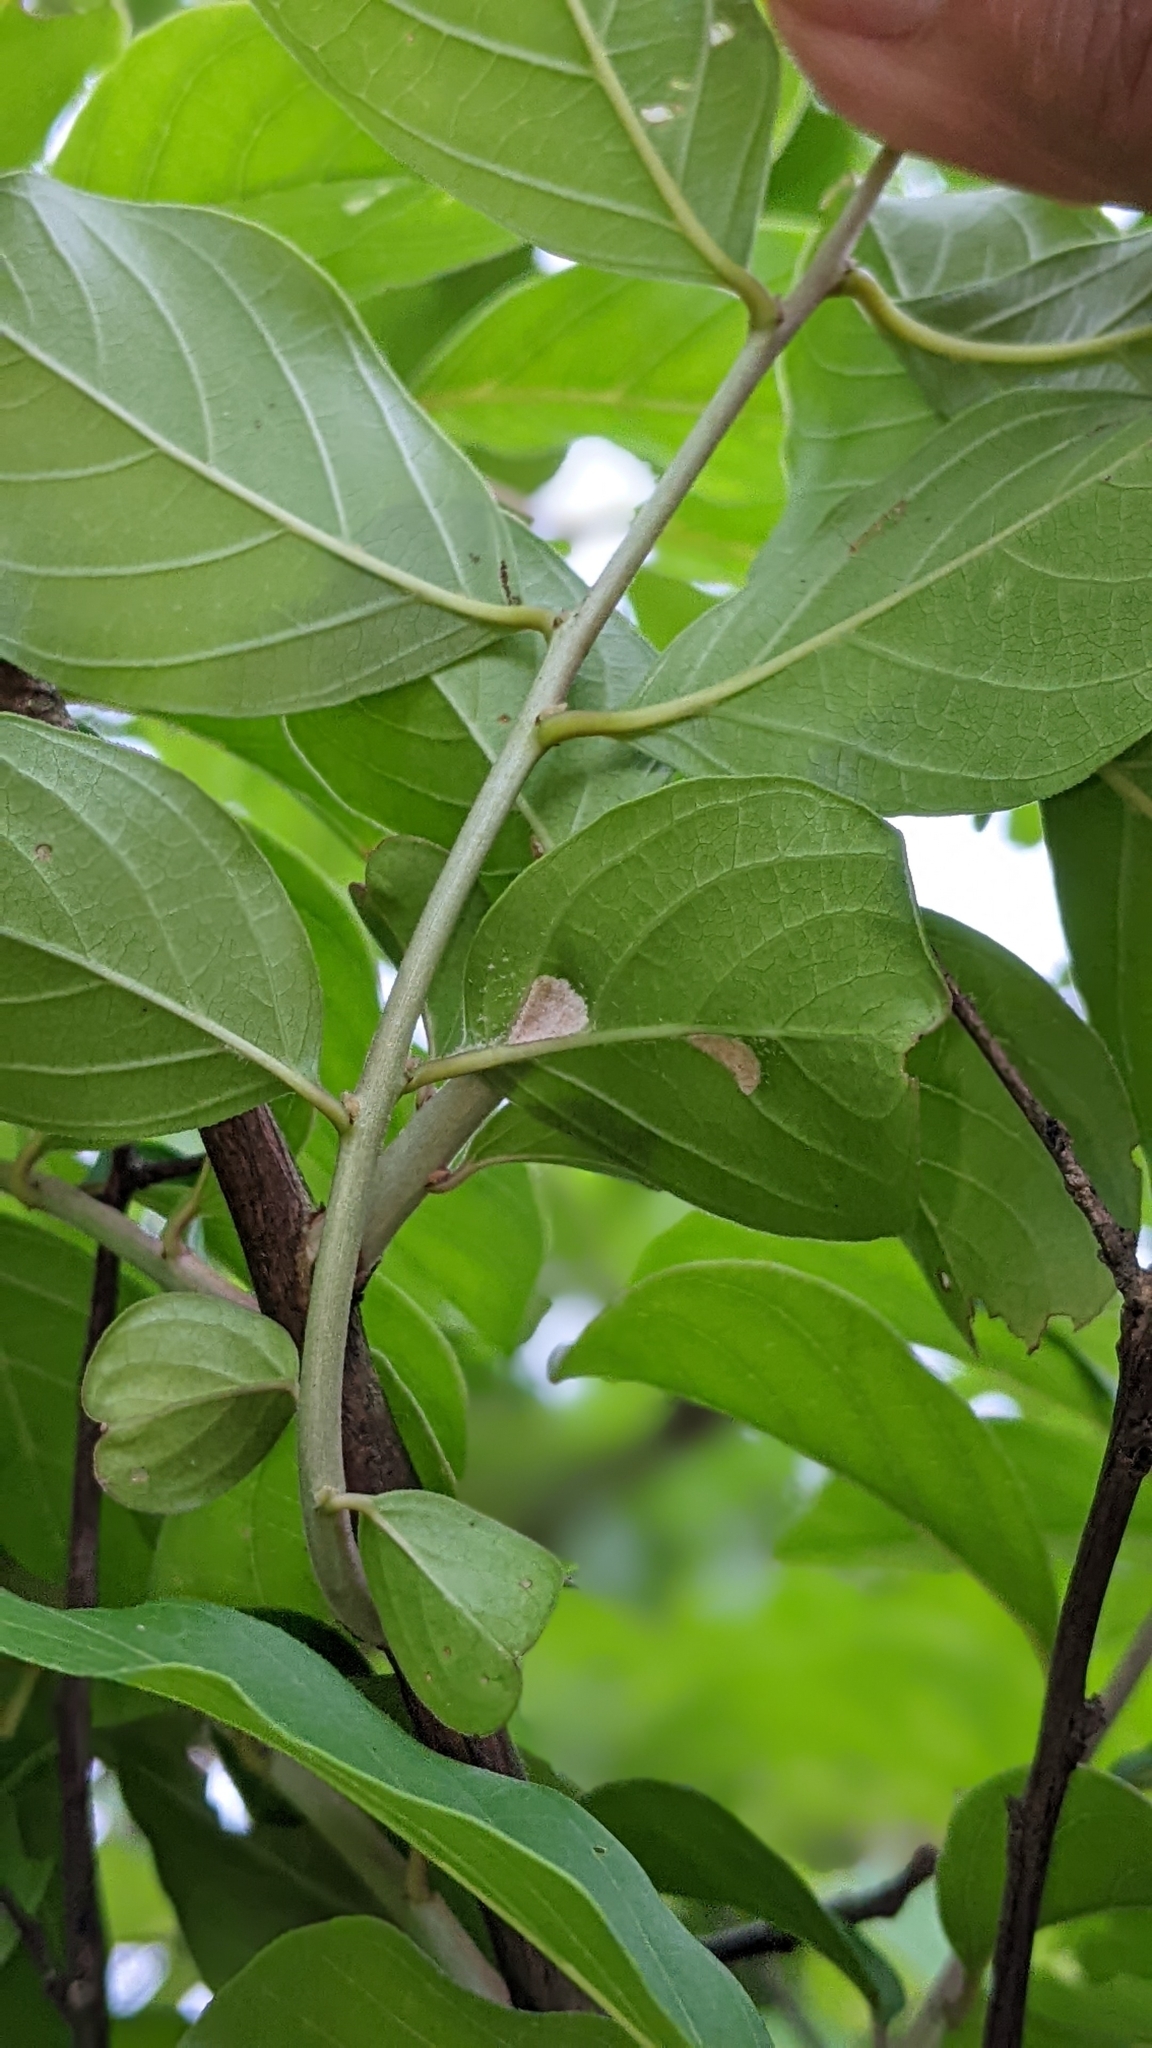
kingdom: Plantae
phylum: Tracheophyta
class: Magnoliopsida
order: Myrtales
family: Lythraceae
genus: Lagerstroemia
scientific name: Lagerstroemia subcostata
